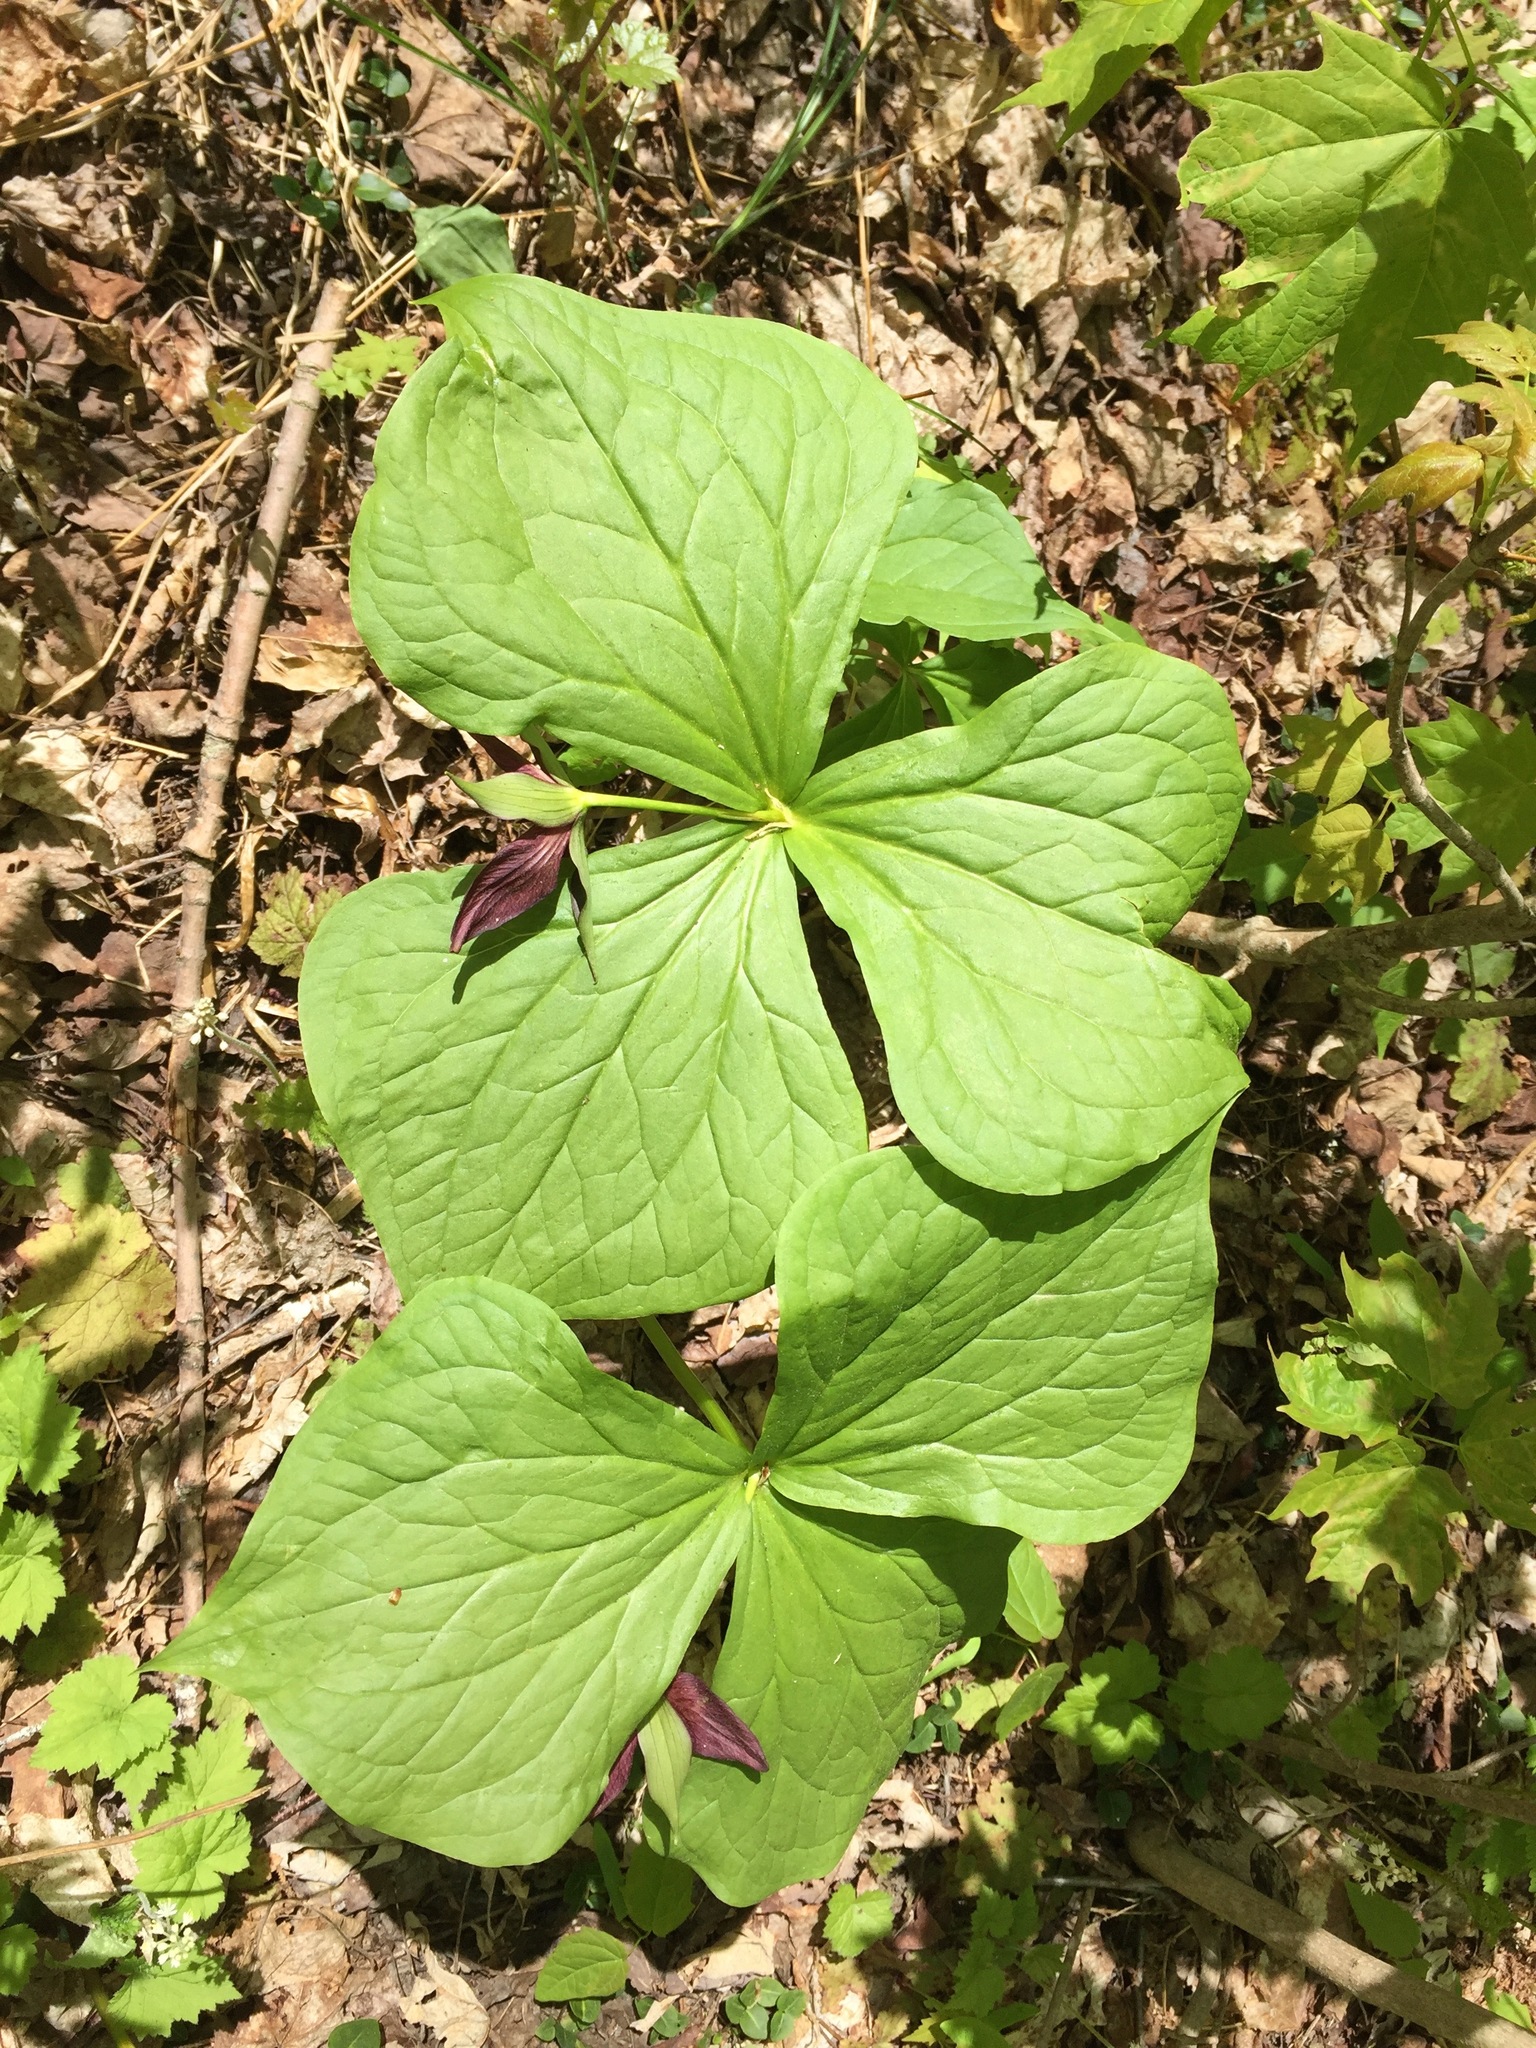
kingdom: Plantae
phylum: Tracheophyta
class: Liliopsida
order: Liliales
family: Melanthiaceae
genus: Trillium
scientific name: Trillium erectum
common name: Purple trillium
